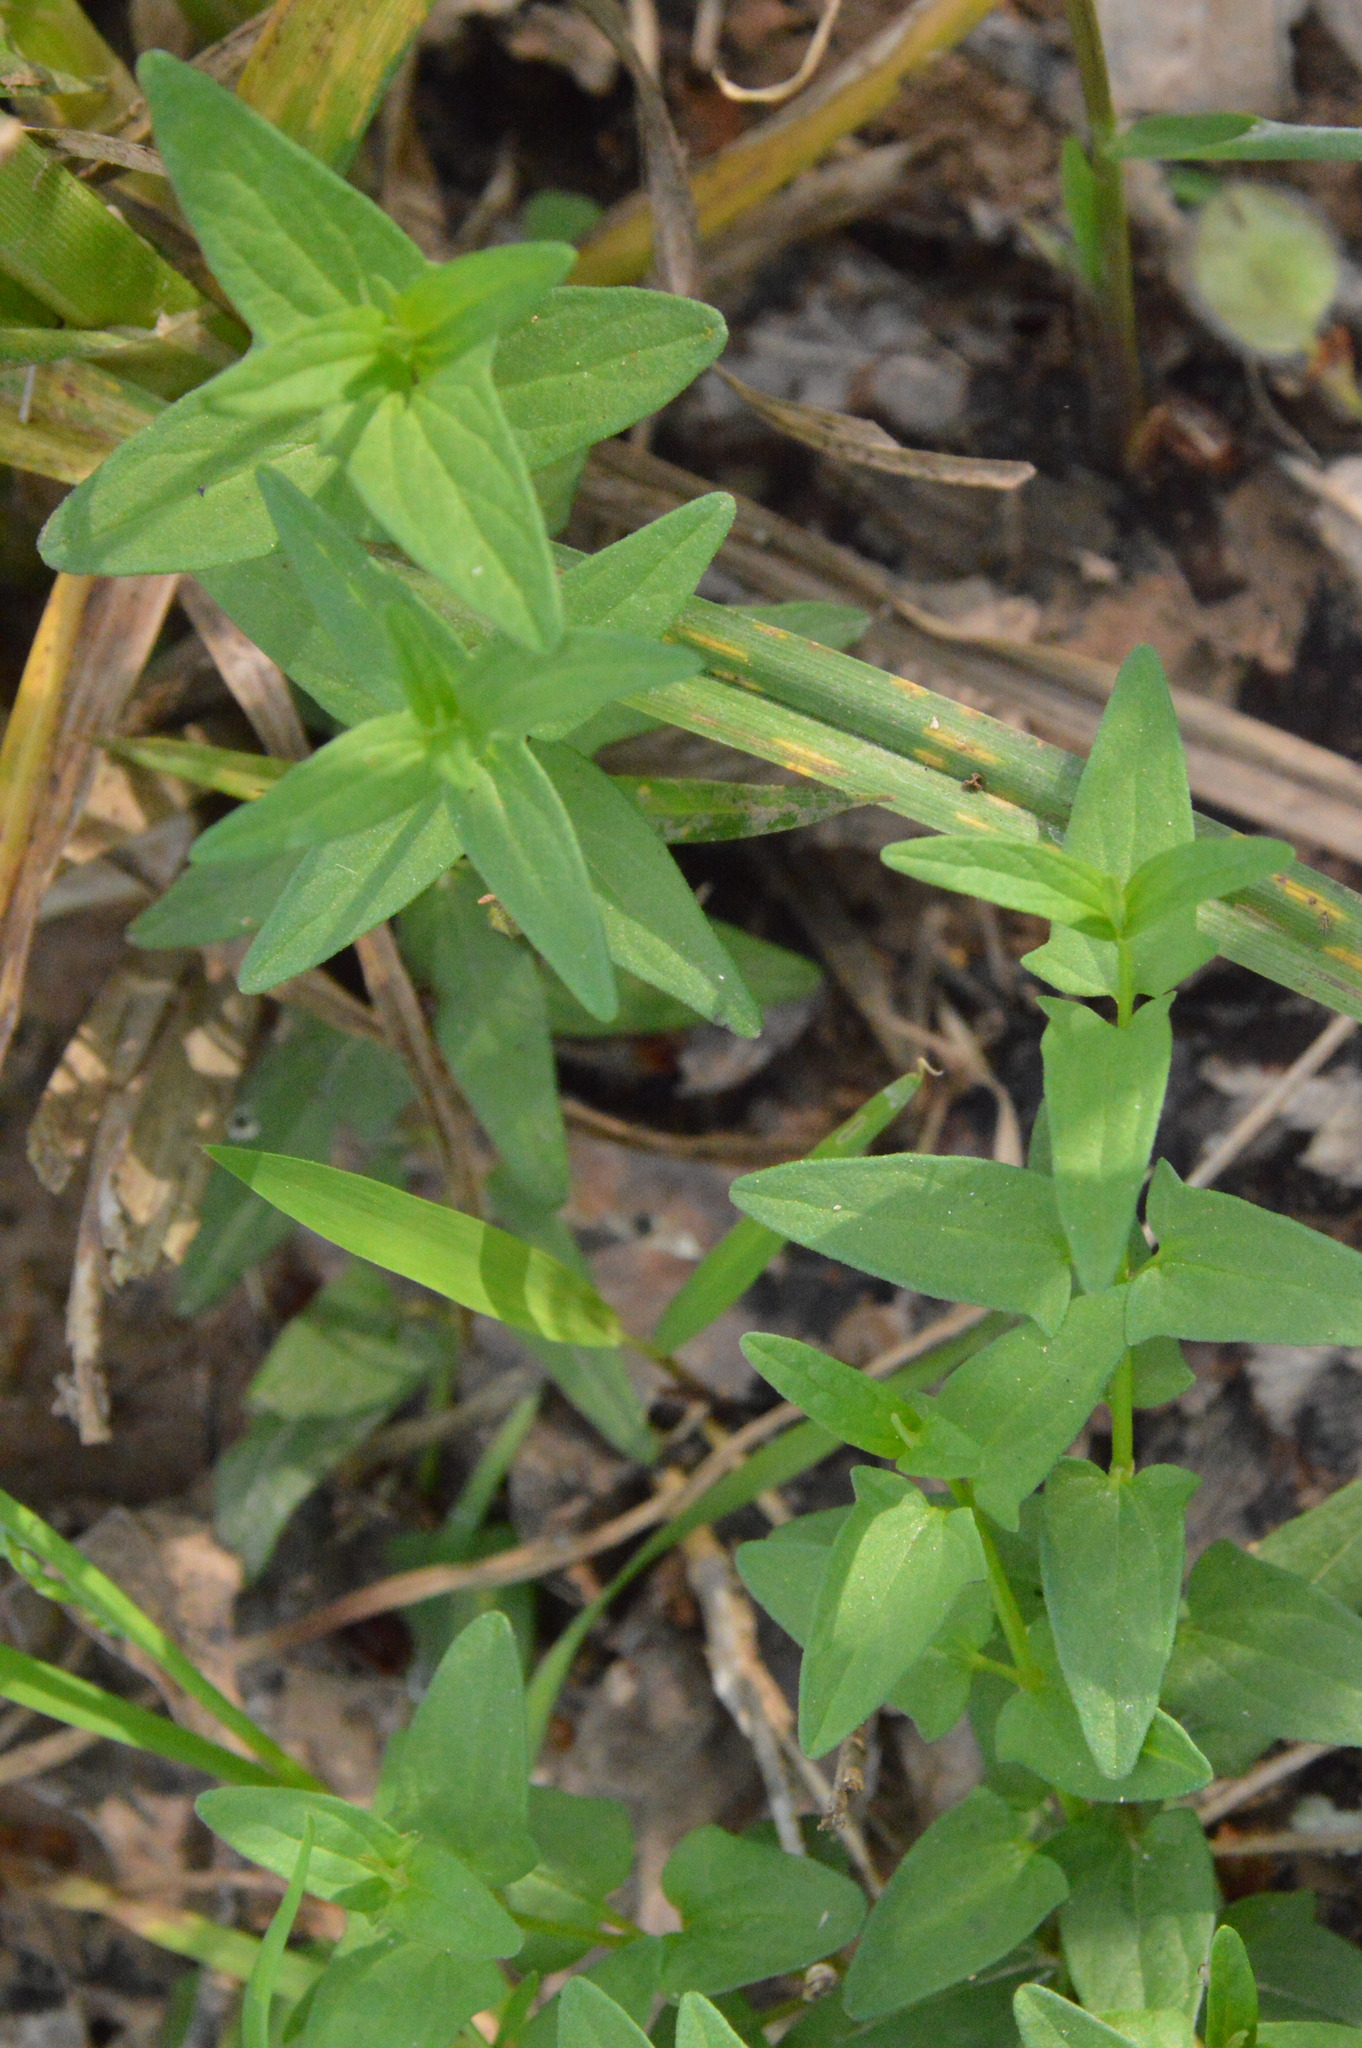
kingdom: Plantae
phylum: Tracheophyta
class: Magnoliopsida
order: Lamiales
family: Lamiaceae
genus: Scutellaria
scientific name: Scutellaria racemosa
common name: South american skullcap
